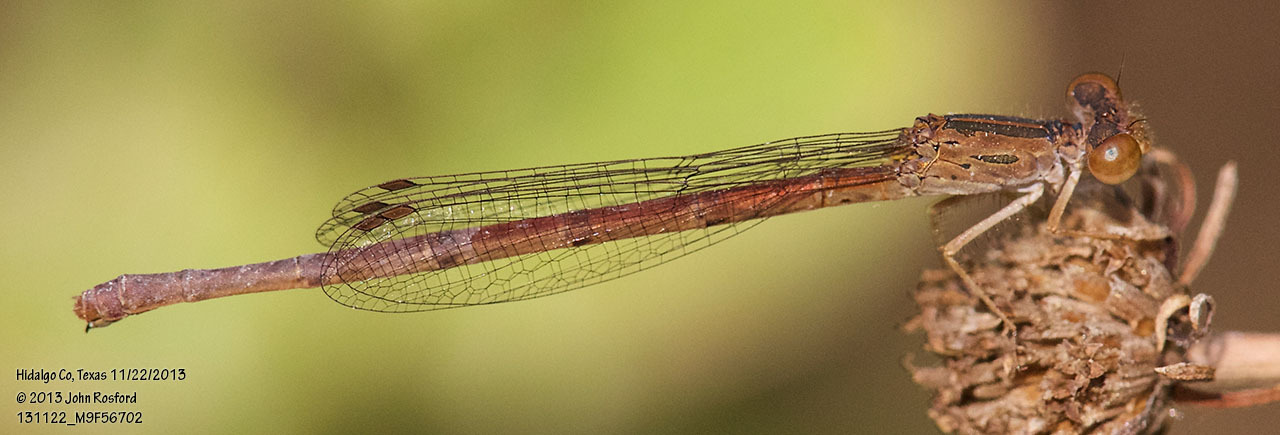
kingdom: Animalia
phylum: Arthropoda
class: Insecta
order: Odonata
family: Coenagrionidae
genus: Telebasis
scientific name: Telebasis salva
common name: Desert firetail
